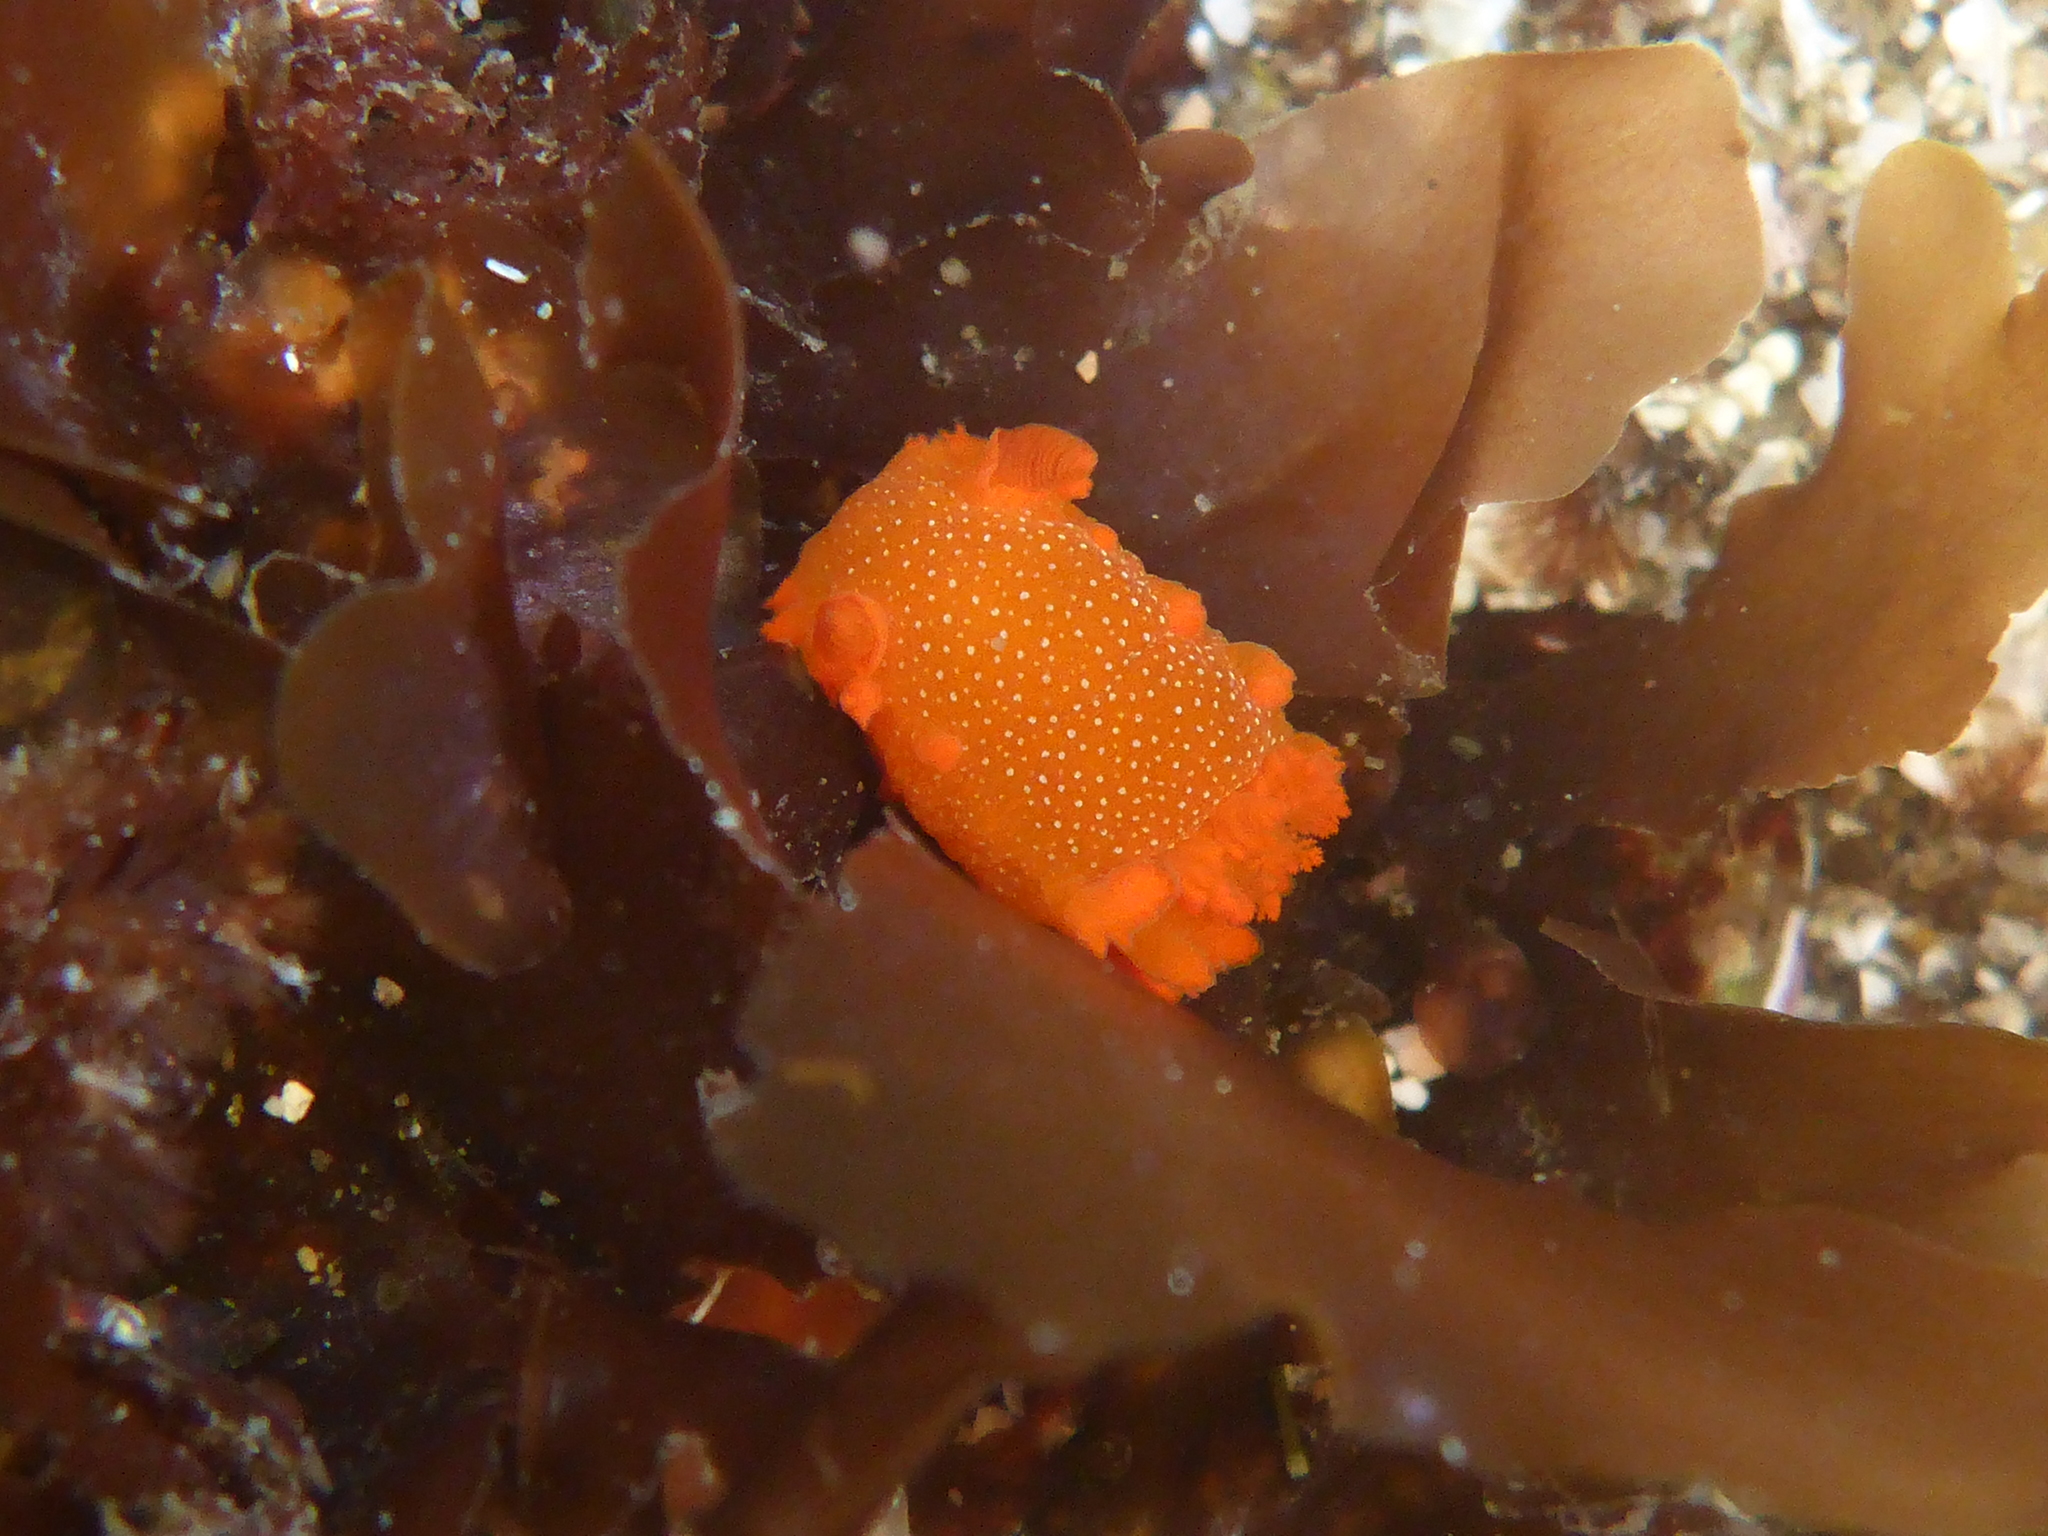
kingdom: Animalia
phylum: Mollusca
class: Gastropoda
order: Nudibranchia
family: Polyceridae
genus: Triopha
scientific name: Triopha maculata
